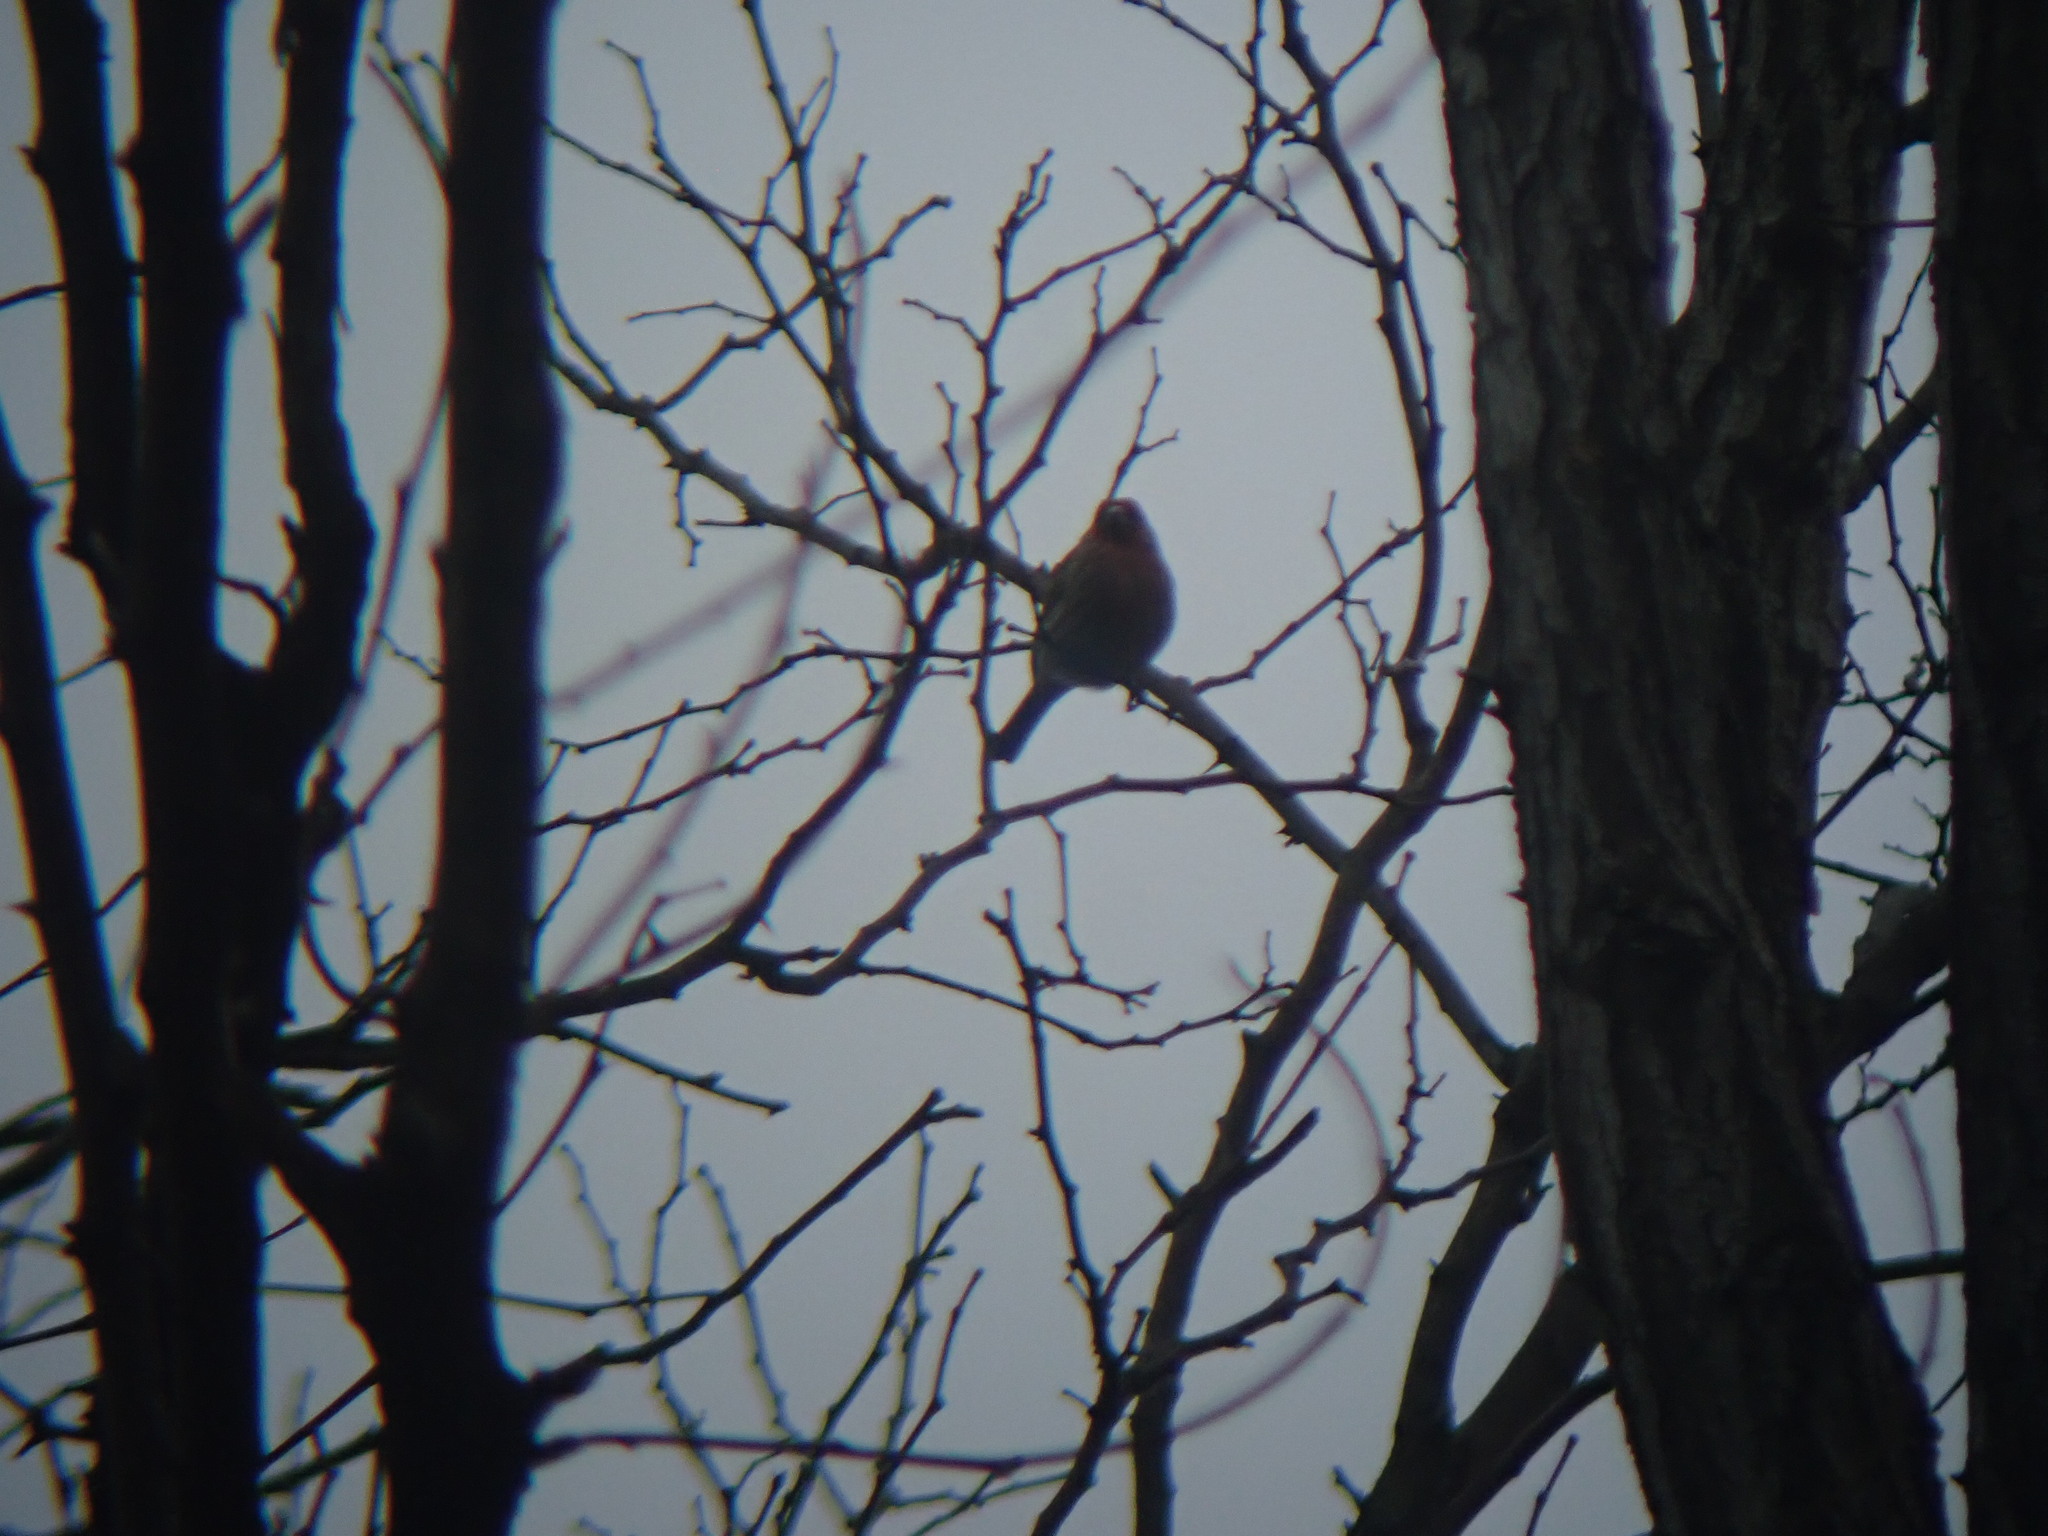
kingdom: Animalia
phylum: Chordata
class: Aves
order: Passeriformes
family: Fringillidae
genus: Haemorhous
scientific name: Haemorhous mexicanus
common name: House finch
